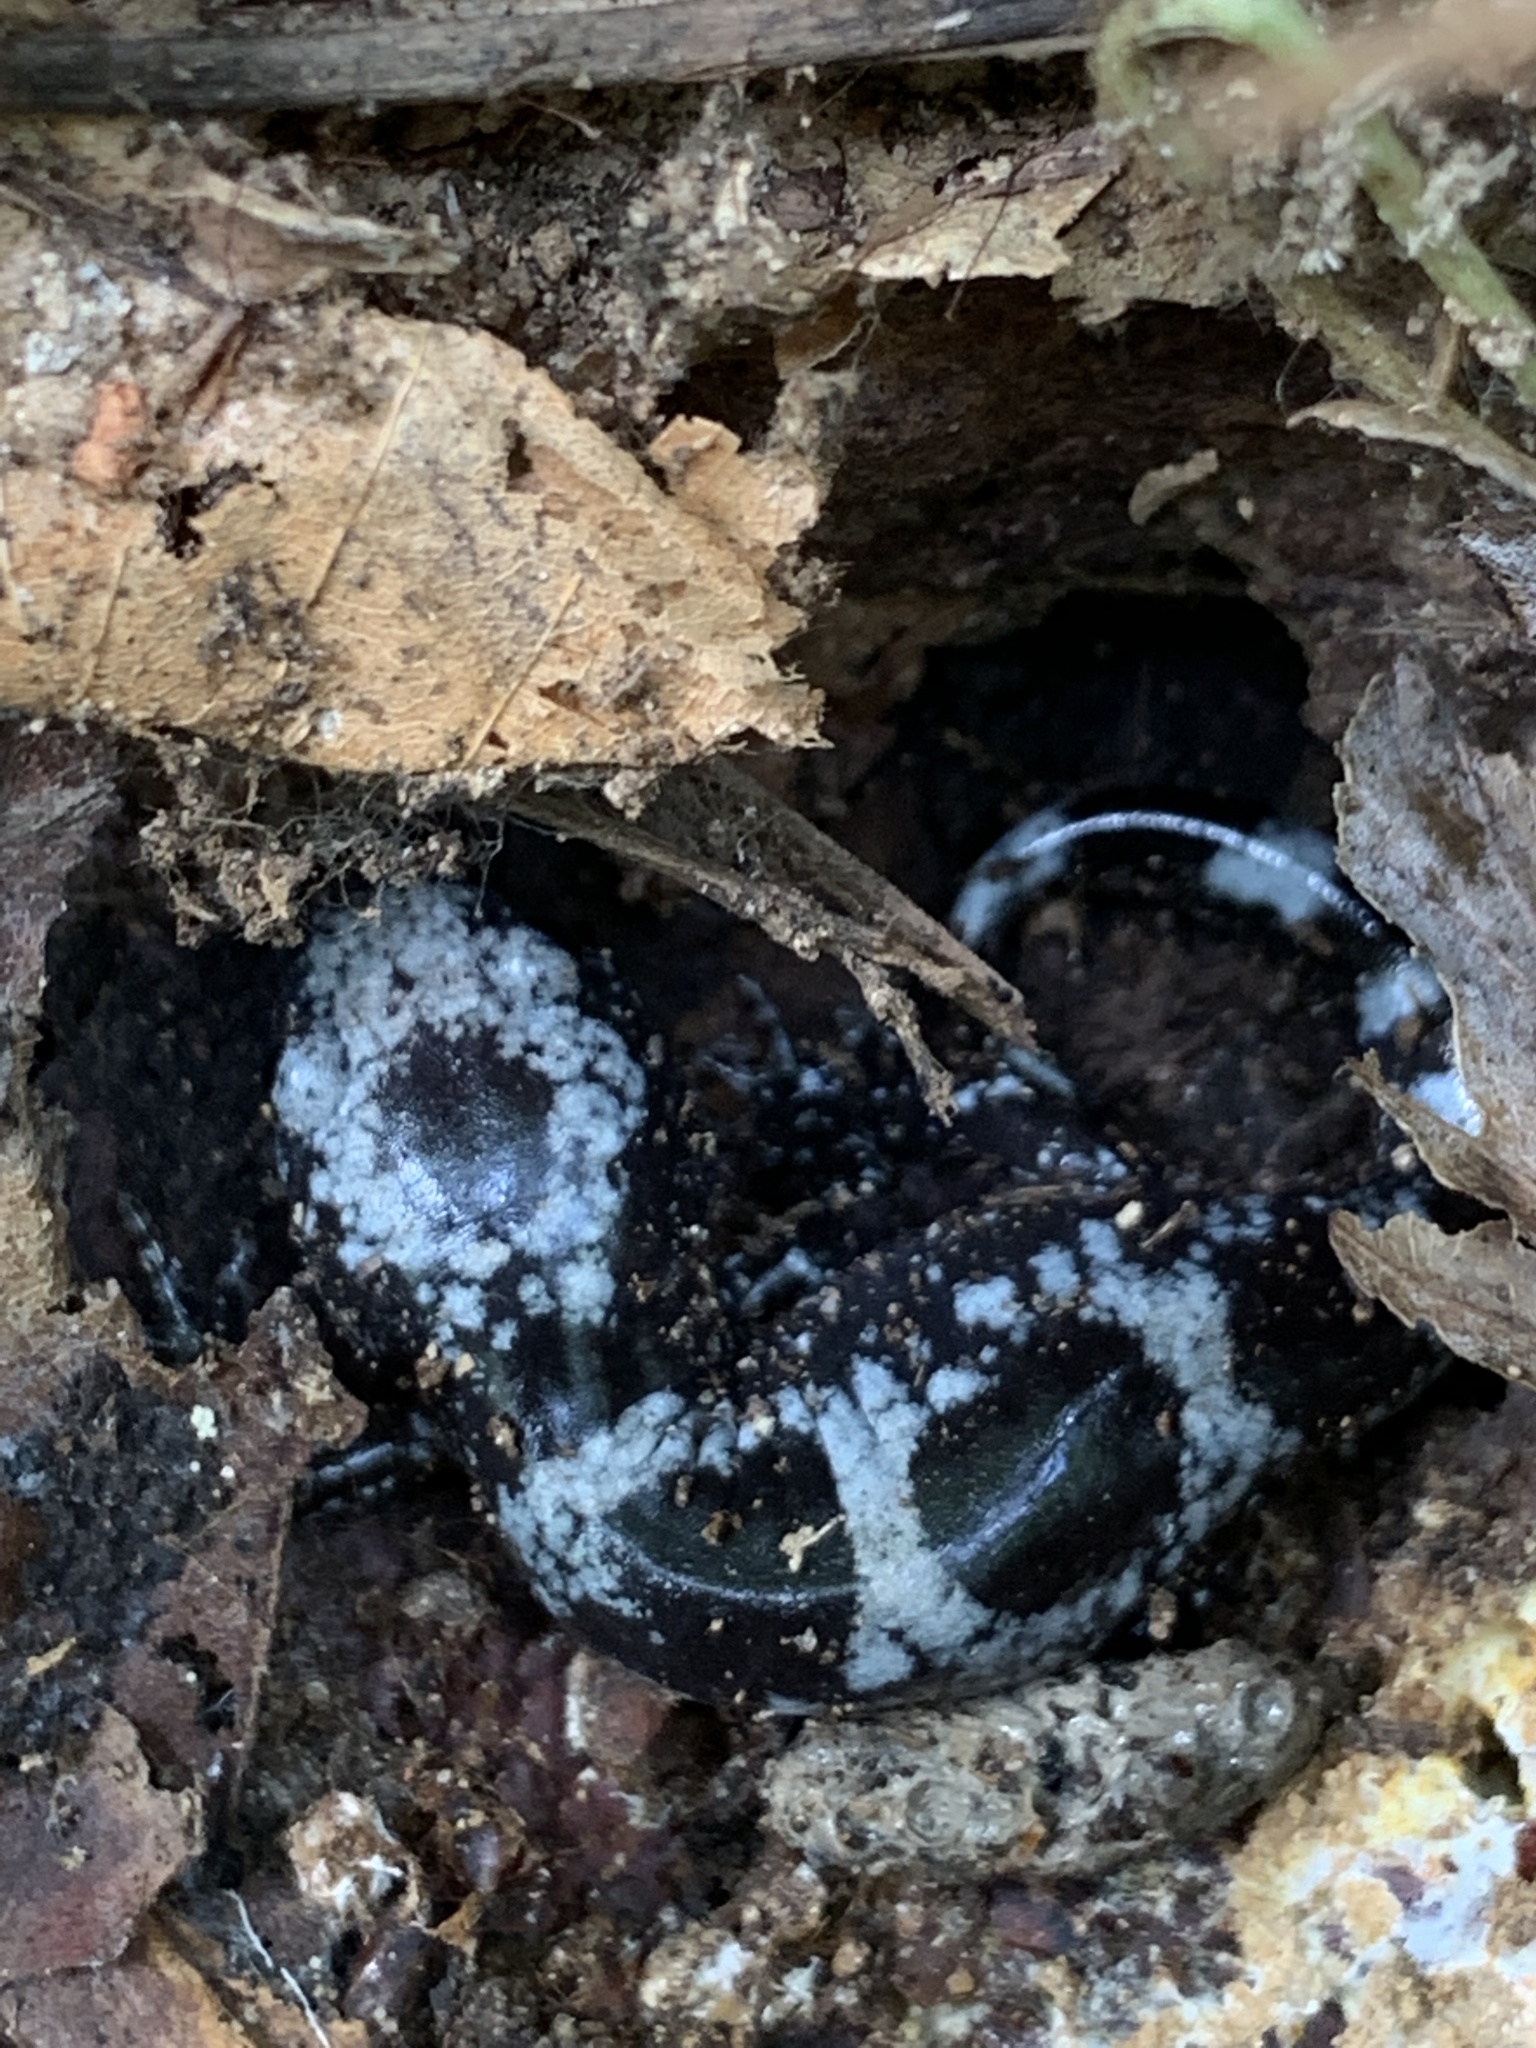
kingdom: Animalia
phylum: Chordata
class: Amphibia
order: Caudata
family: Ambystomatidae
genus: Ambystoma
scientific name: Ambystoma opacum
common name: Marbled salamander
